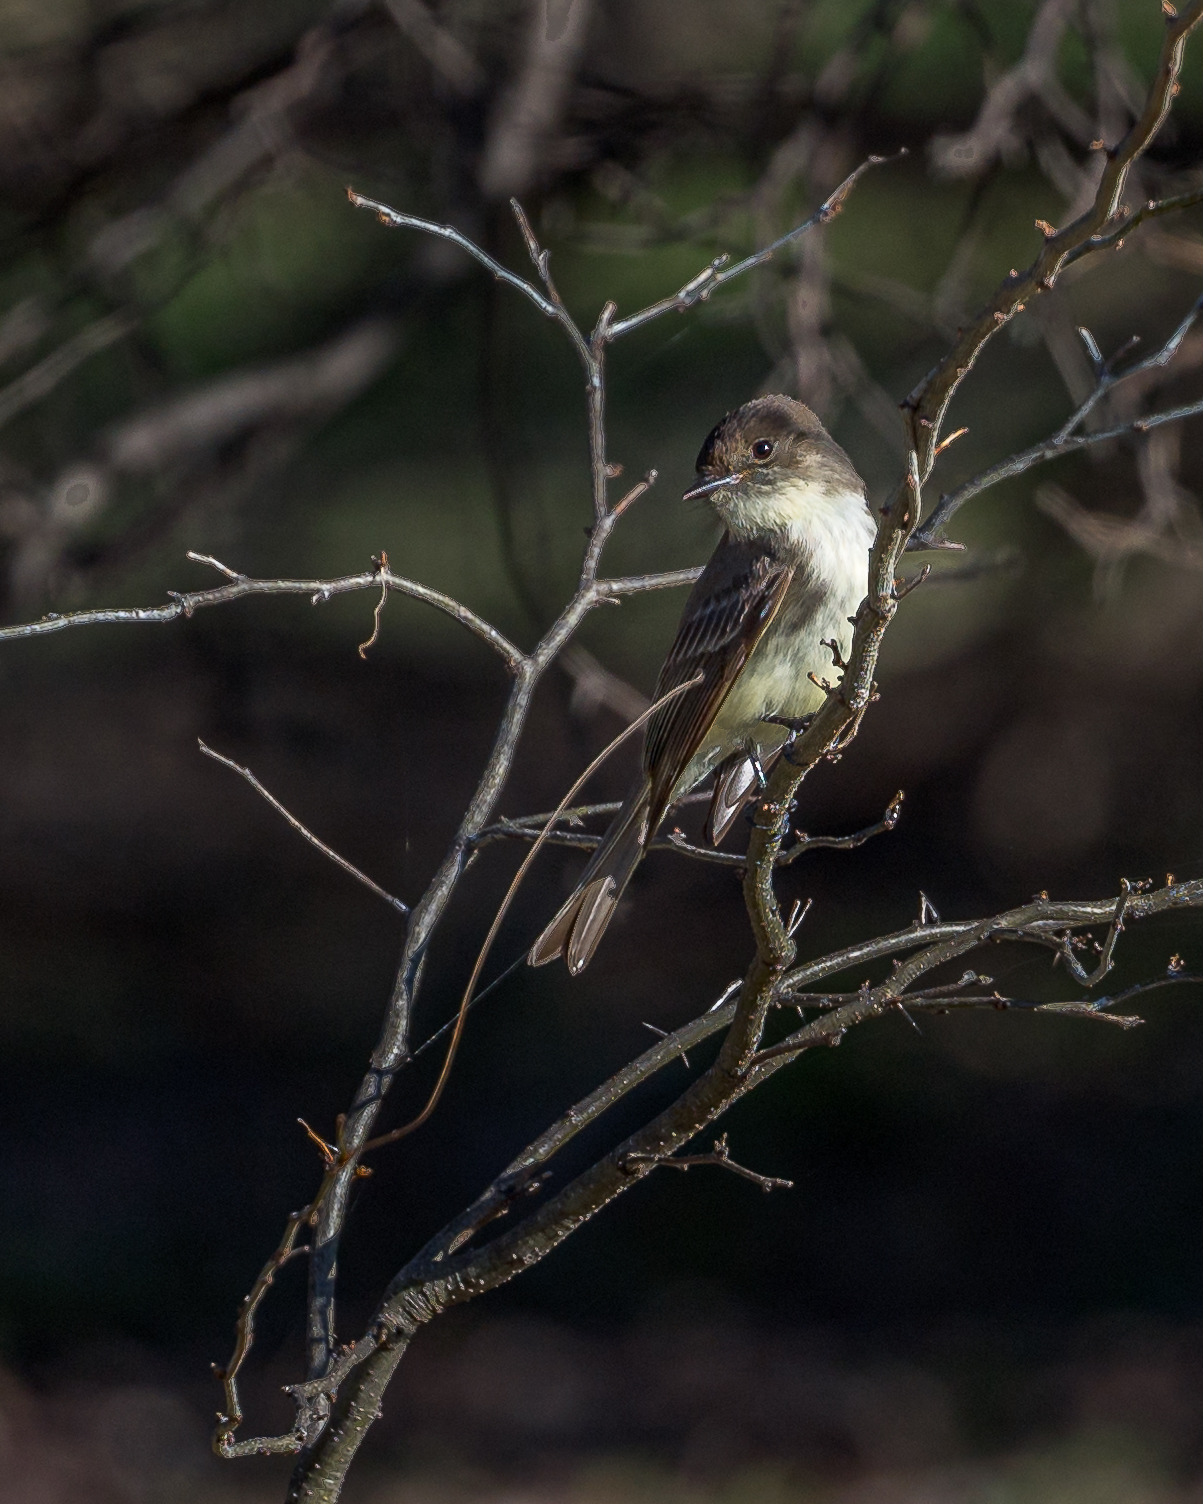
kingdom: Animalia
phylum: Chordata
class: Aves
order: Passeriformes
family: Tyrannidae
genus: Sayornis
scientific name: Sayornis phoebe
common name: Eastern phoebe
